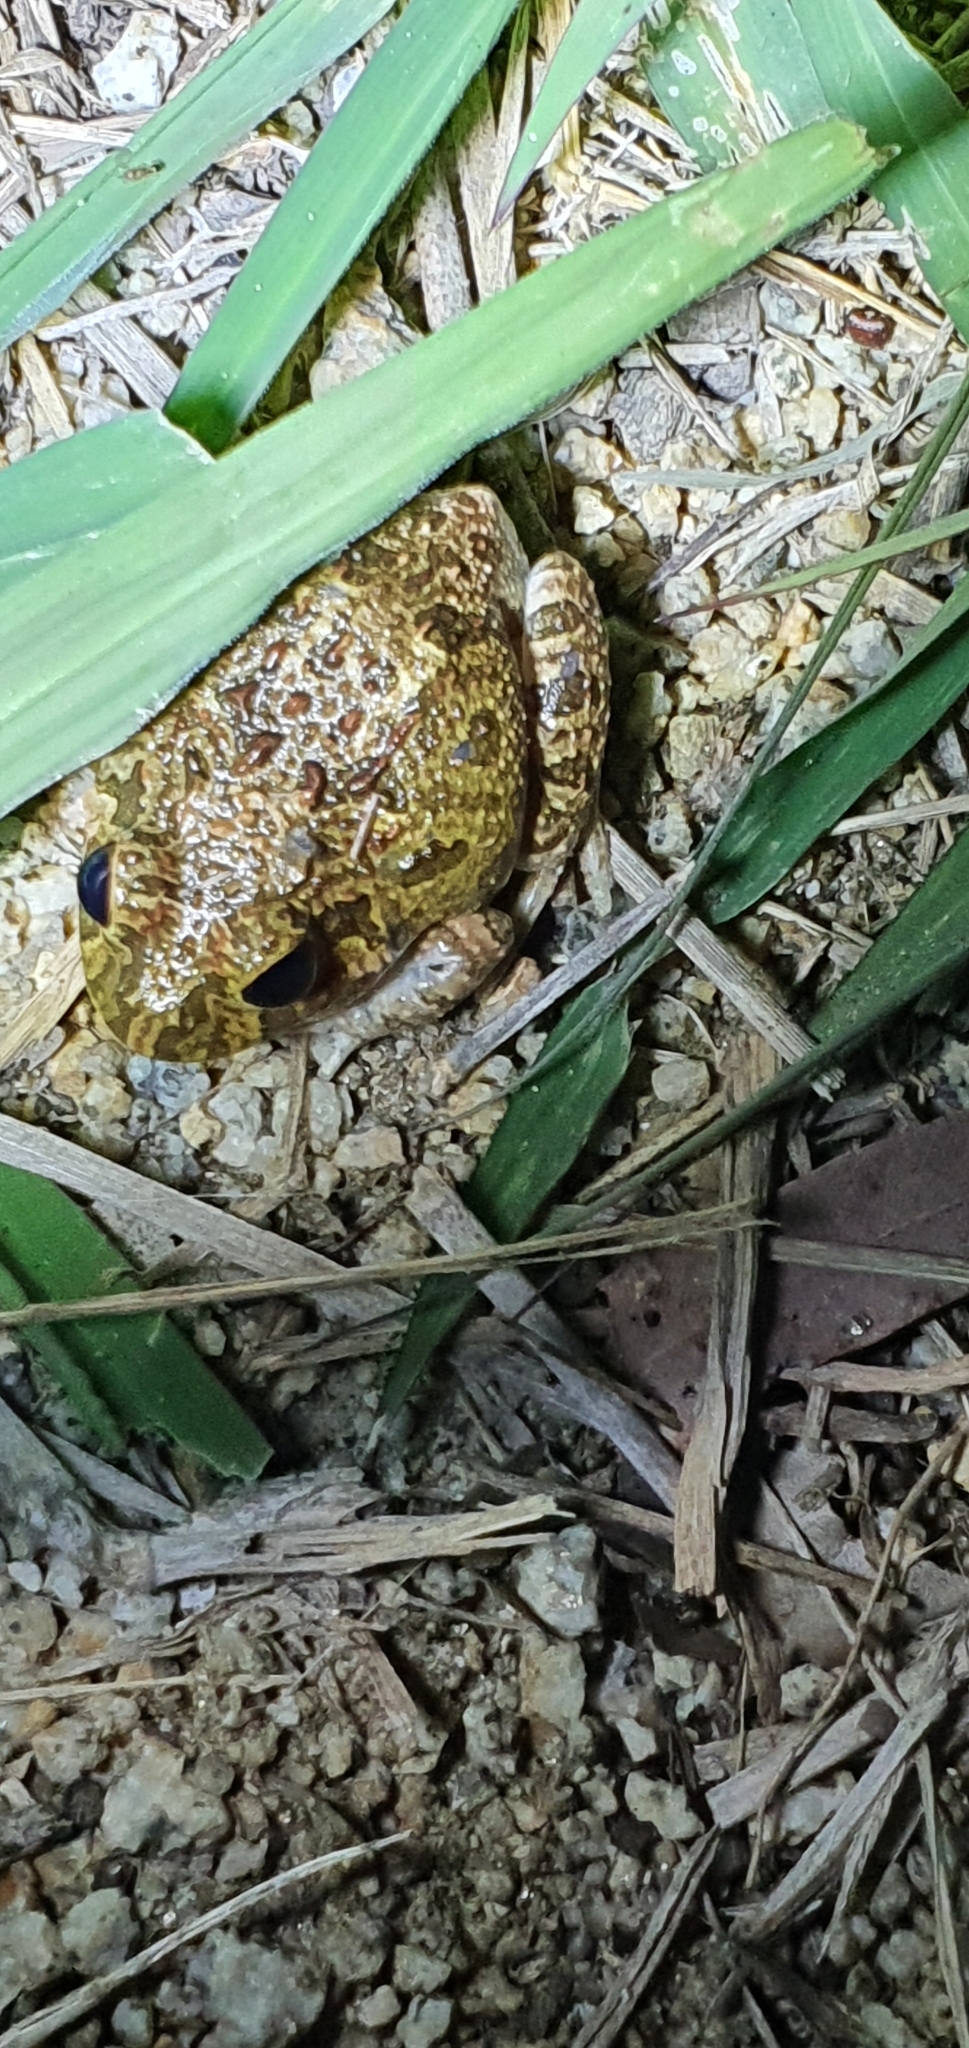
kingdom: Animalia
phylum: Chordata
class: Amphibia
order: Anura
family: Limnodynastidae
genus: Platyplectrum
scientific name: Platyplectrum ornatum
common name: Ornate burrowing frog
